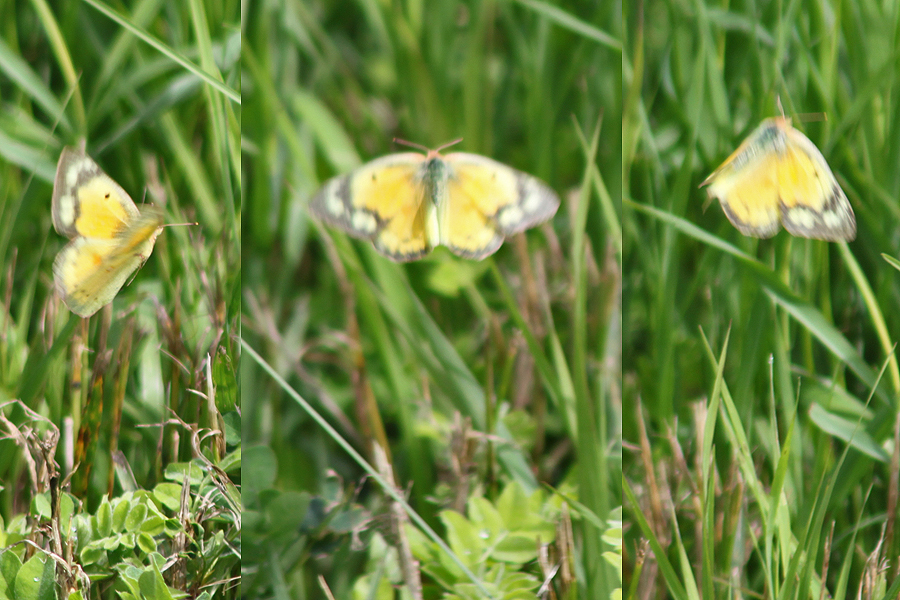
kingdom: Animalia
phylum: Arthropoda
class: Insecta
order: Lepidoptera
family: Pieridae
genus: Colias
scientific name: Colias eurytheme
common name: Alfalfa butterfly
